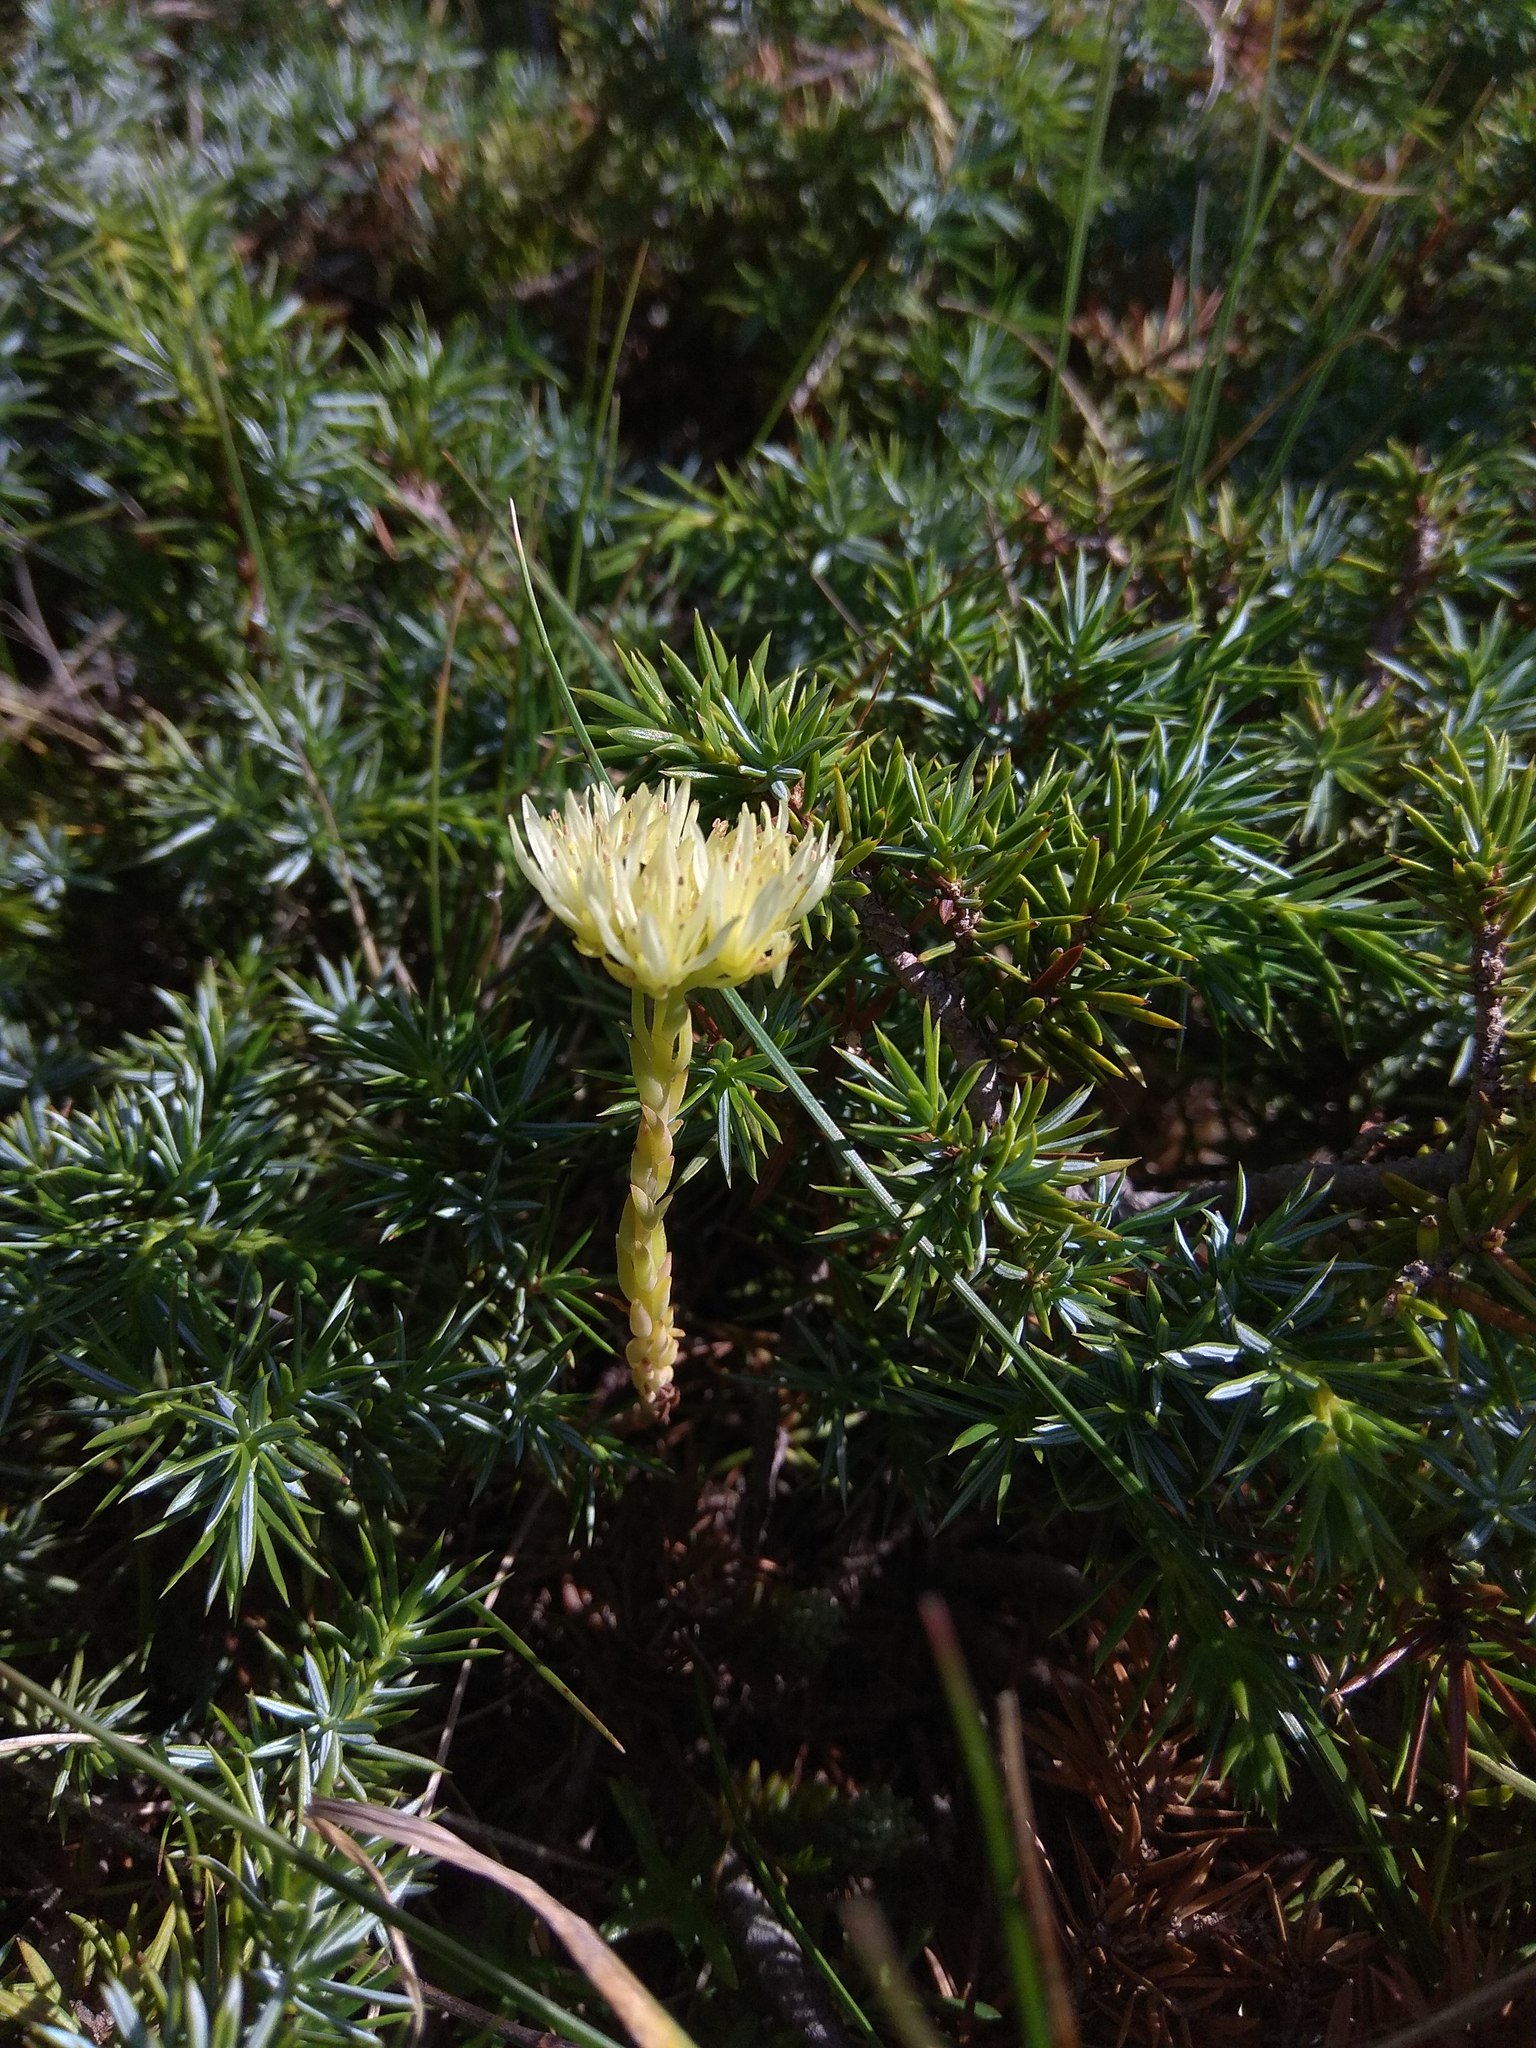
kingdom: Plantae
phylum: Tracheophyta
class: Magnoliopsida
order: Saxifragales
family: Crassulaceae
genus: Petrosedum
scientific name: Petrosedum ochroleucum
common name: European stonecrop
